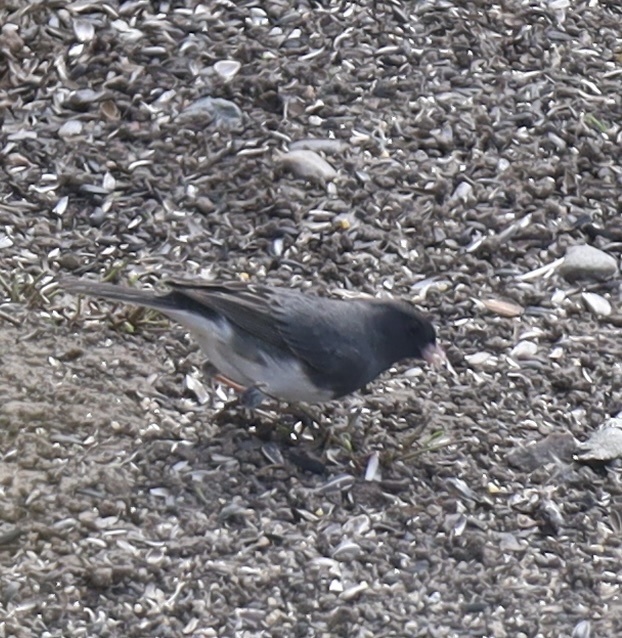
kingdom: Animalia
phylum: Chordata
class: Aves
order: Passeriformes
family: Passerellidae
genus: Junco
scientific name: Junco hyemalis
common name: Dark-eyed junco
